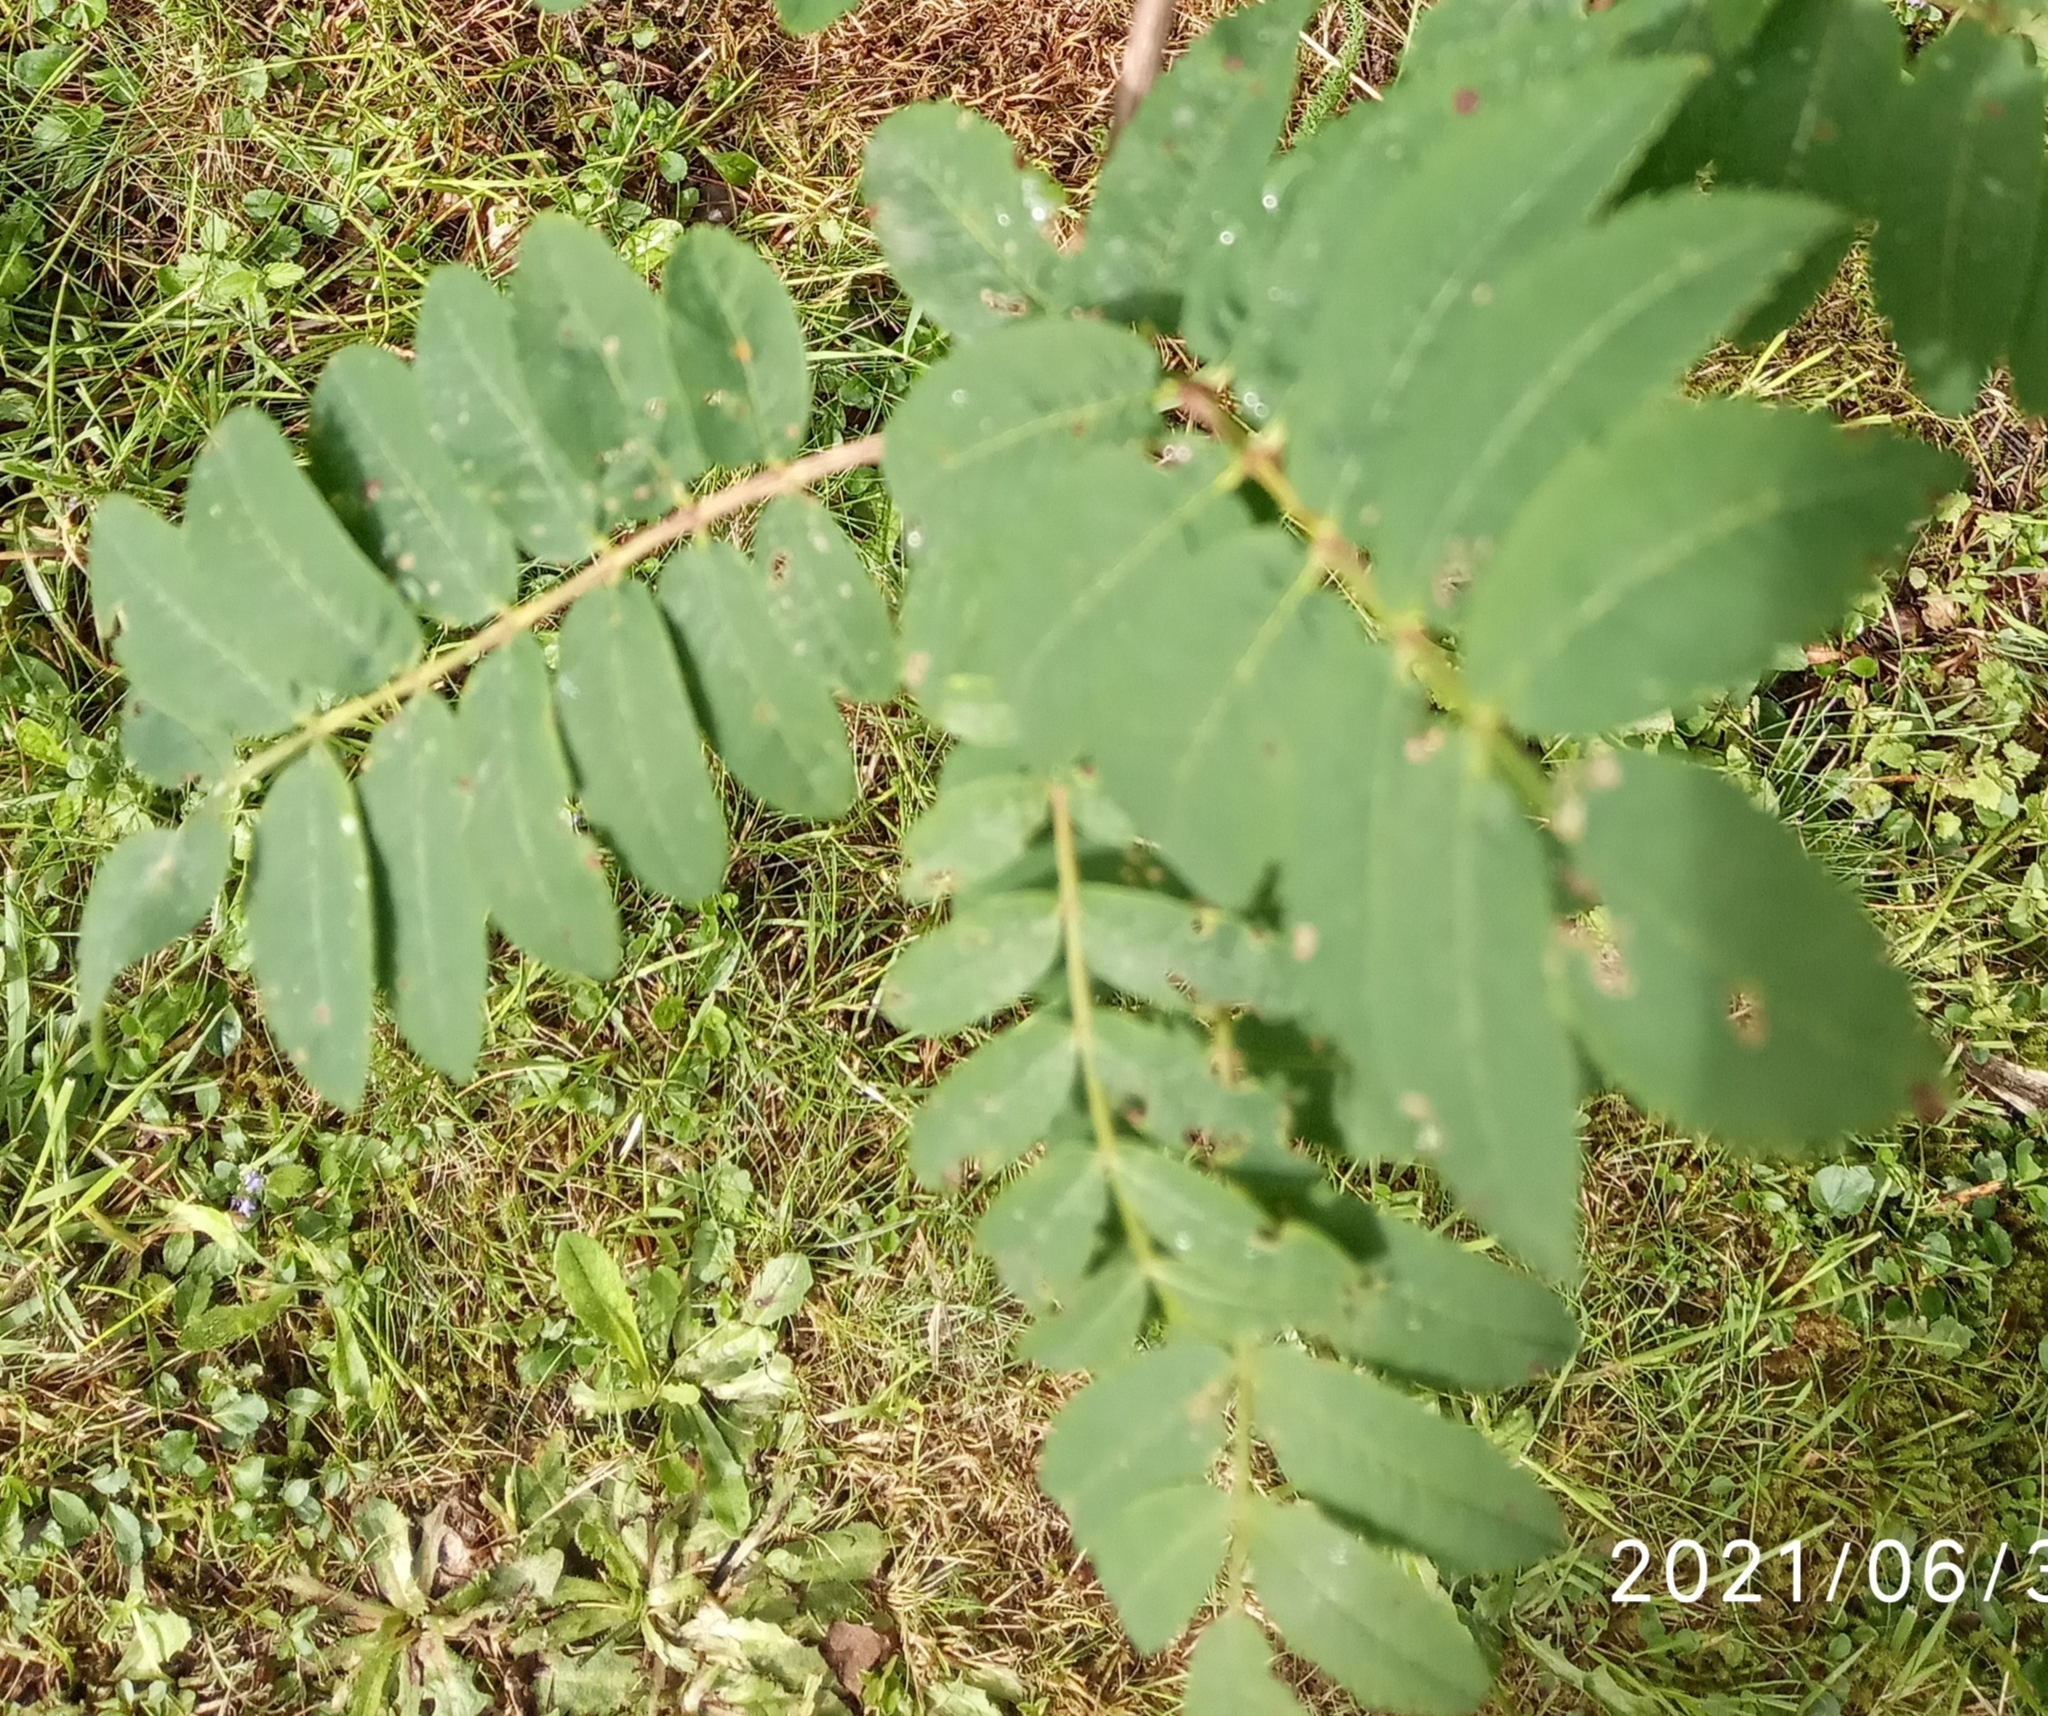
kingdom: Plantae
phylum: Tracheophyta
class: Magnoliopsida
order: Rosales
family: Rosaceae
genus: Sorbus
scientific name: Sorbus aucuparia
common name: Rowan
